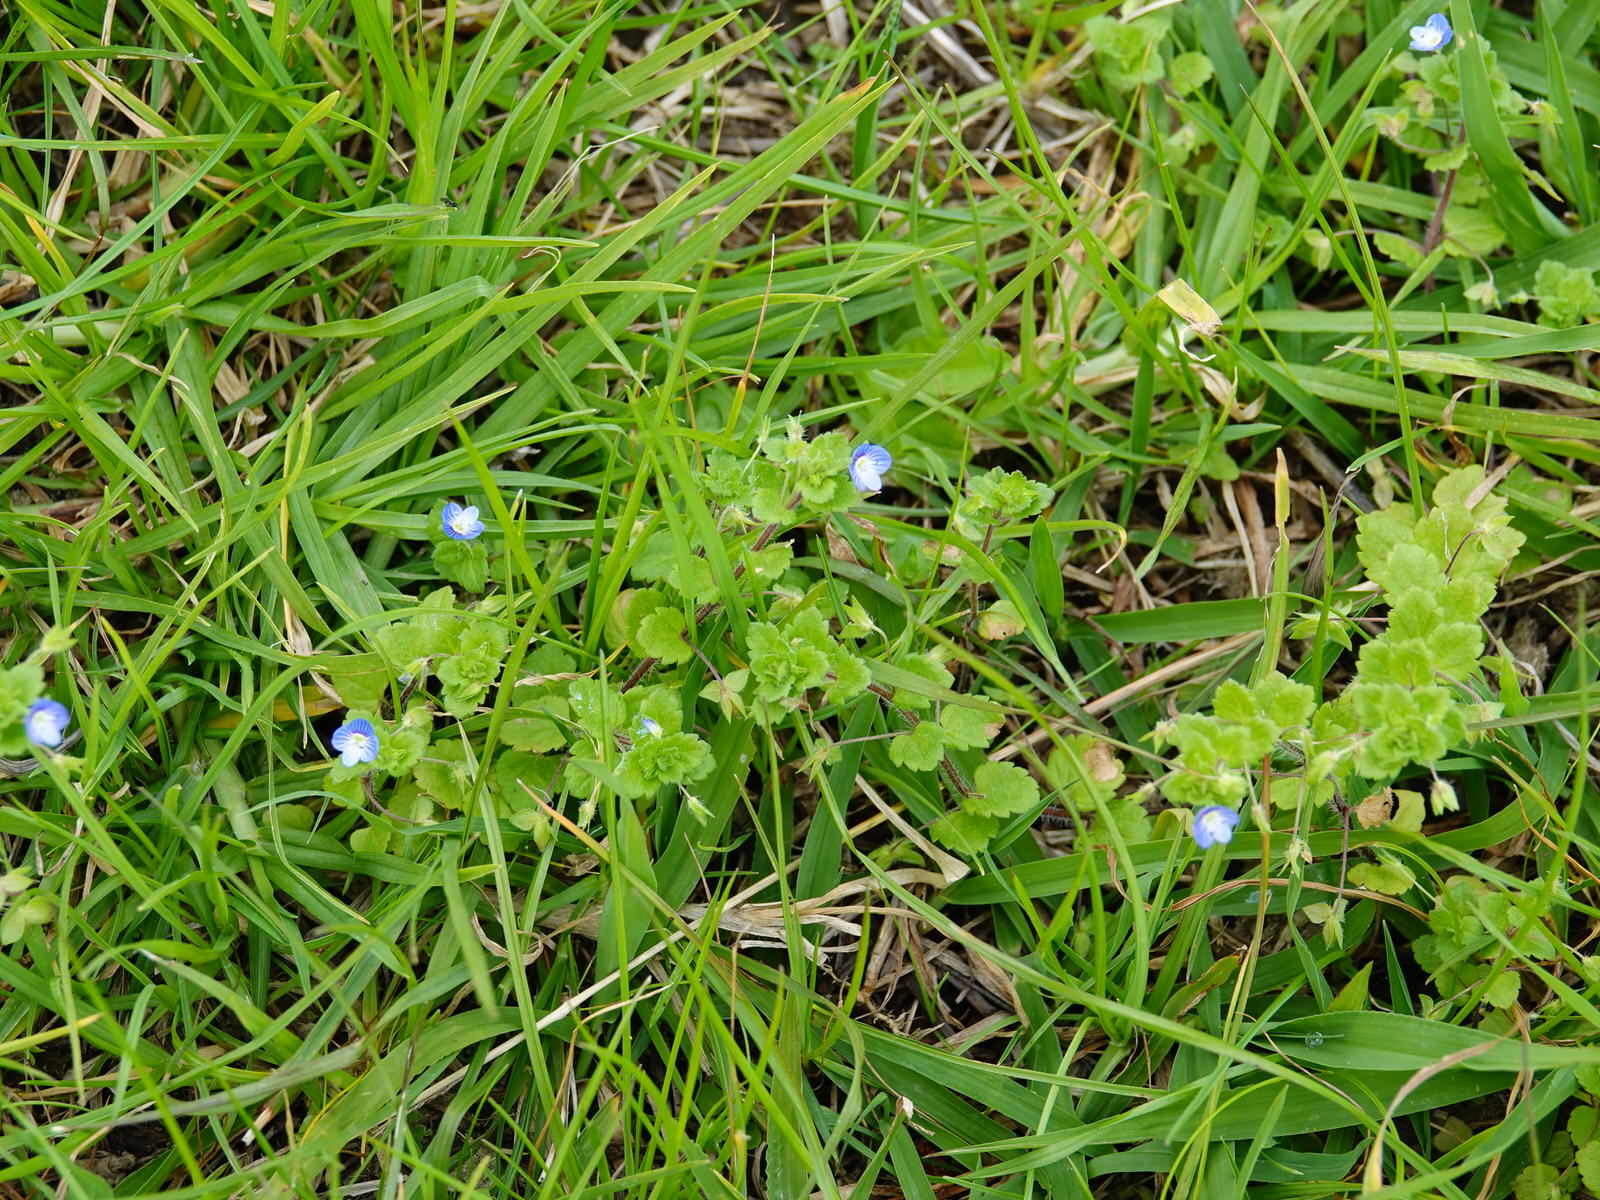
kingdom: Plantae
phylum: Tracheophyta
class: Magnoliopsida
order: Lamiales
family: Plantaginaceae
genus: Veronica
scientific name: Veronica persica
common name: Common field-speedwell
